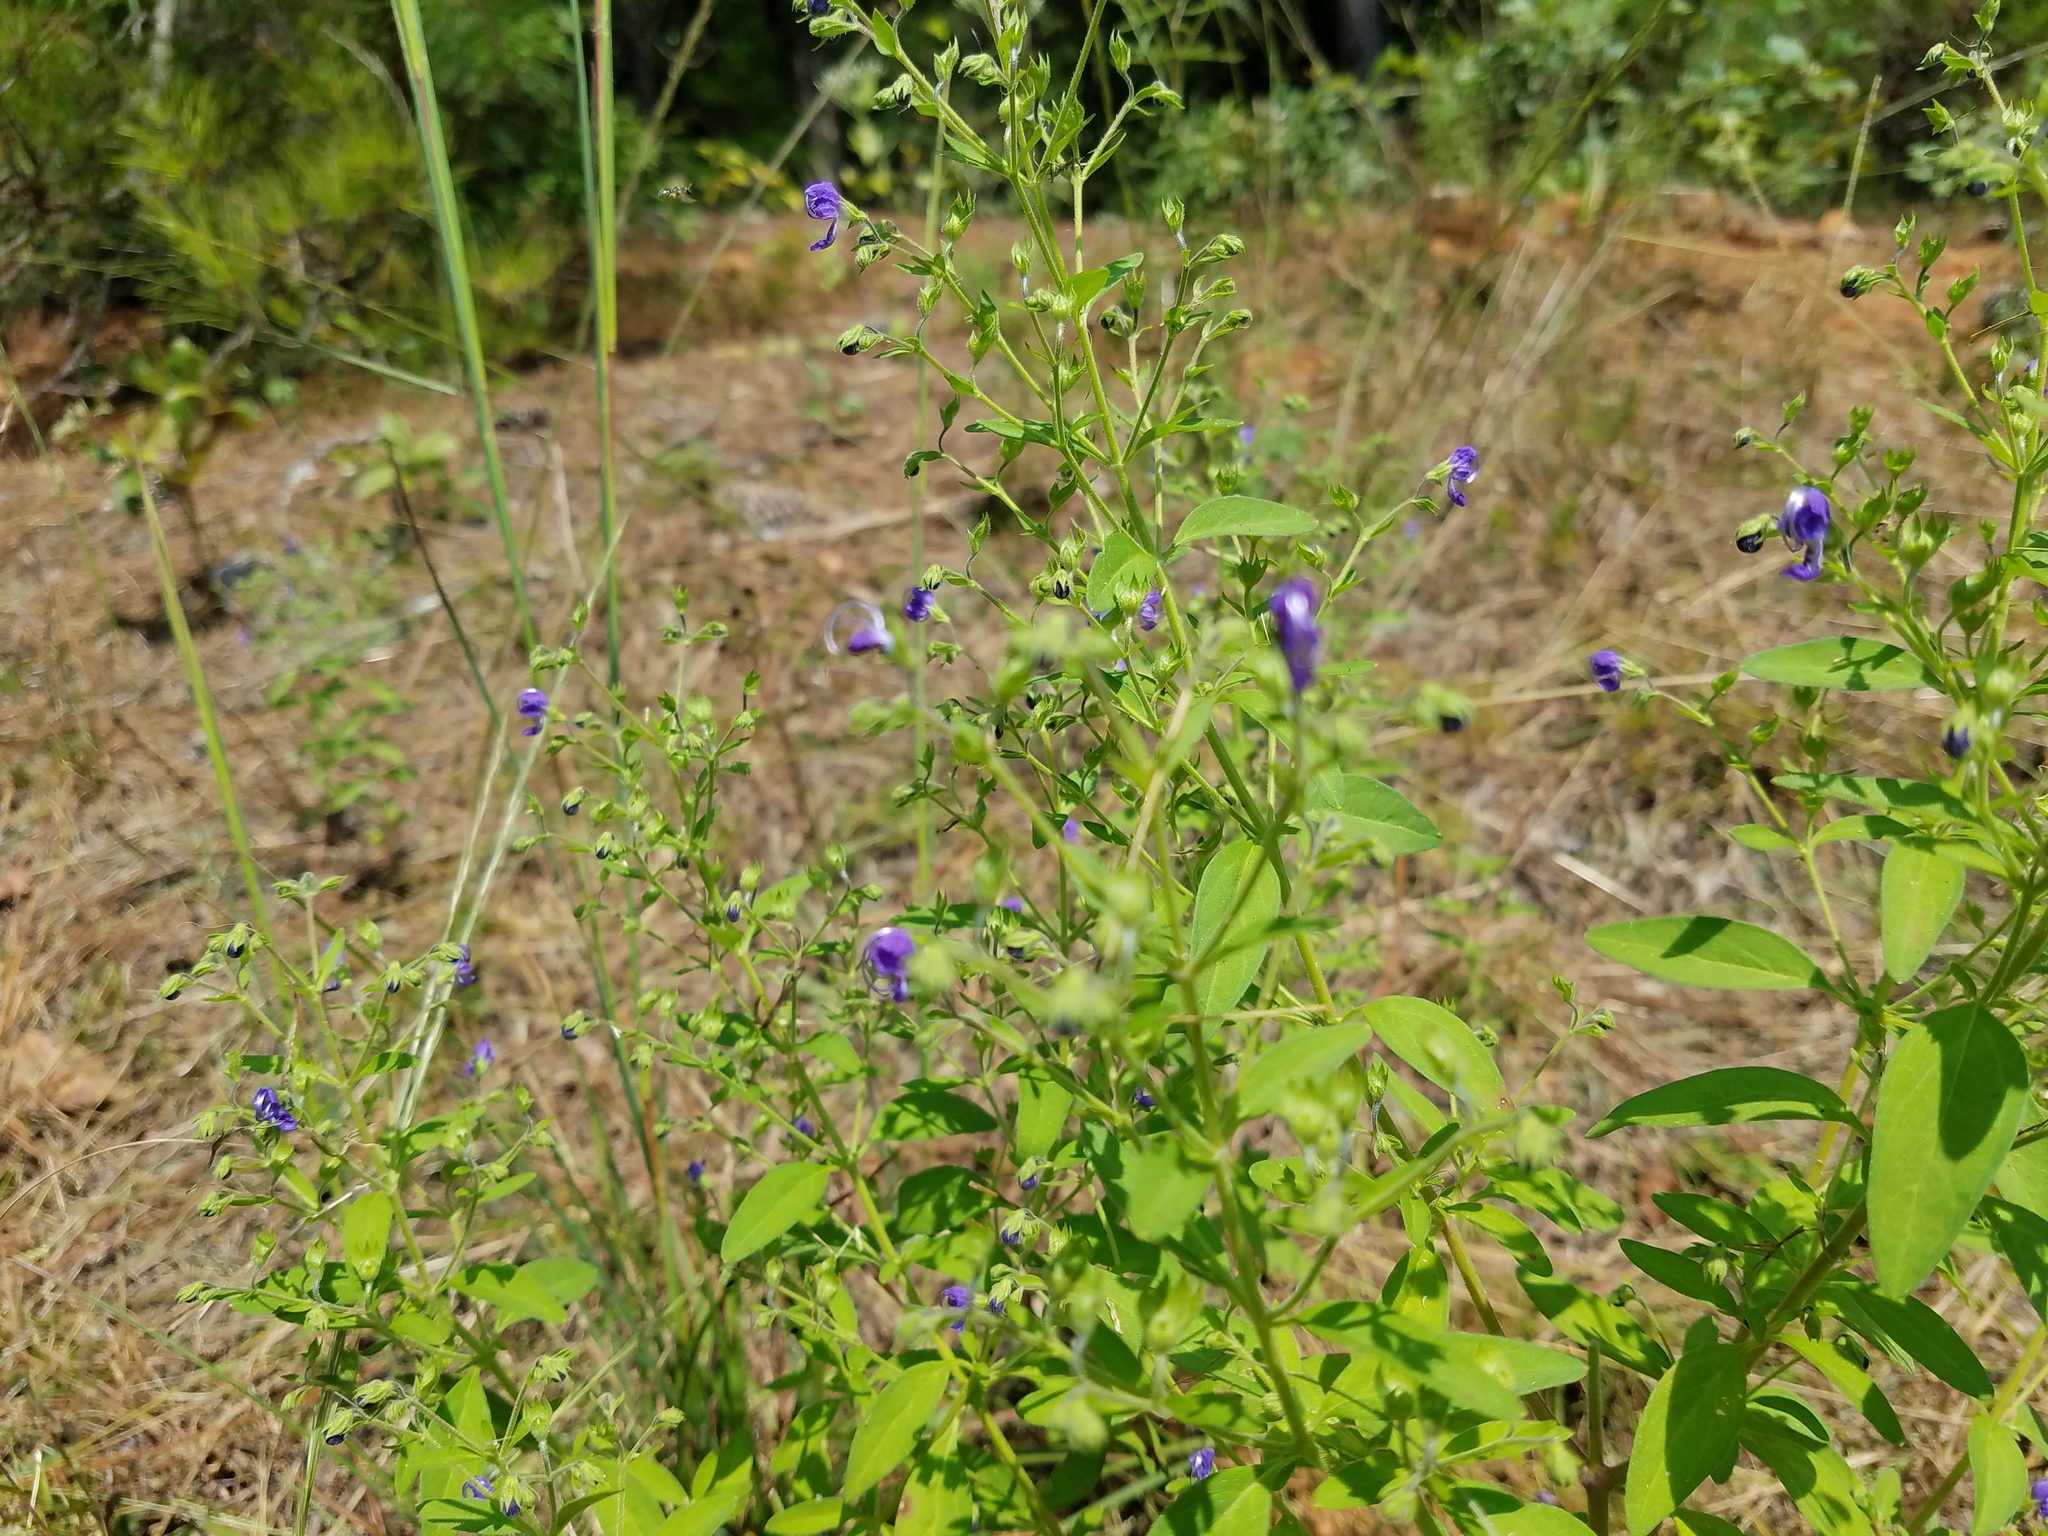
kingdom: Plantae
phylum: Tracheophyta
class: Magnoliopsida
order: Lamiales
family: Lamiaceae
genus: Trichostema
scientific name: Trichostema dichotomum
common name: Bastard pennyroyal
